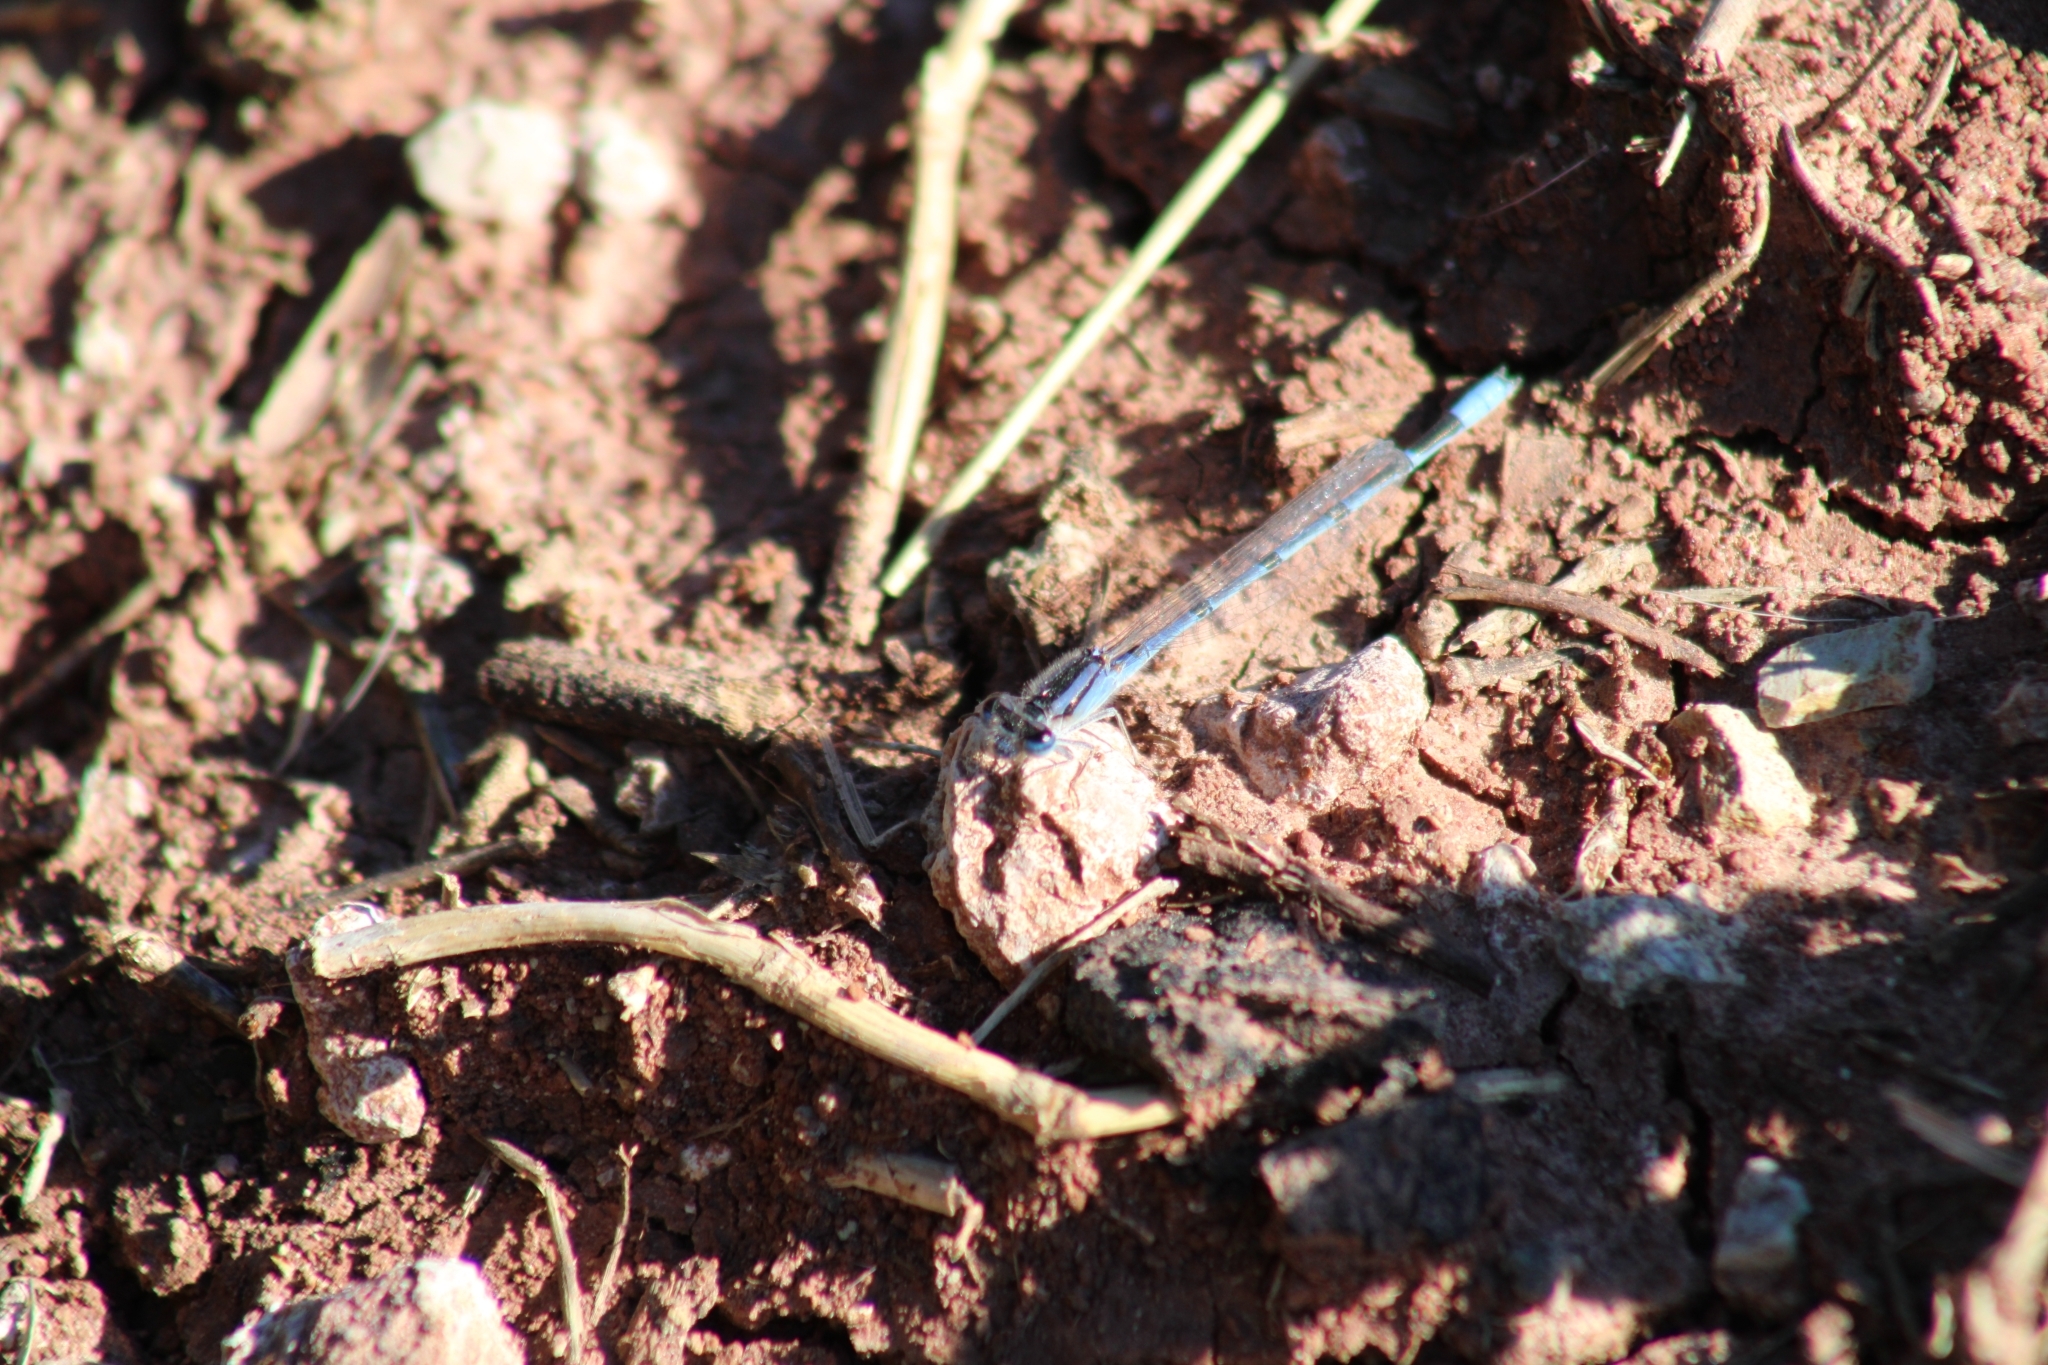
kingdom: Animalia
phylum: Arthropoda
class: Insecta
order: Odonata
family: Coenagrionidae
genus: Enallagma
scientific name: Enallagma civile
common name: Damselfly
